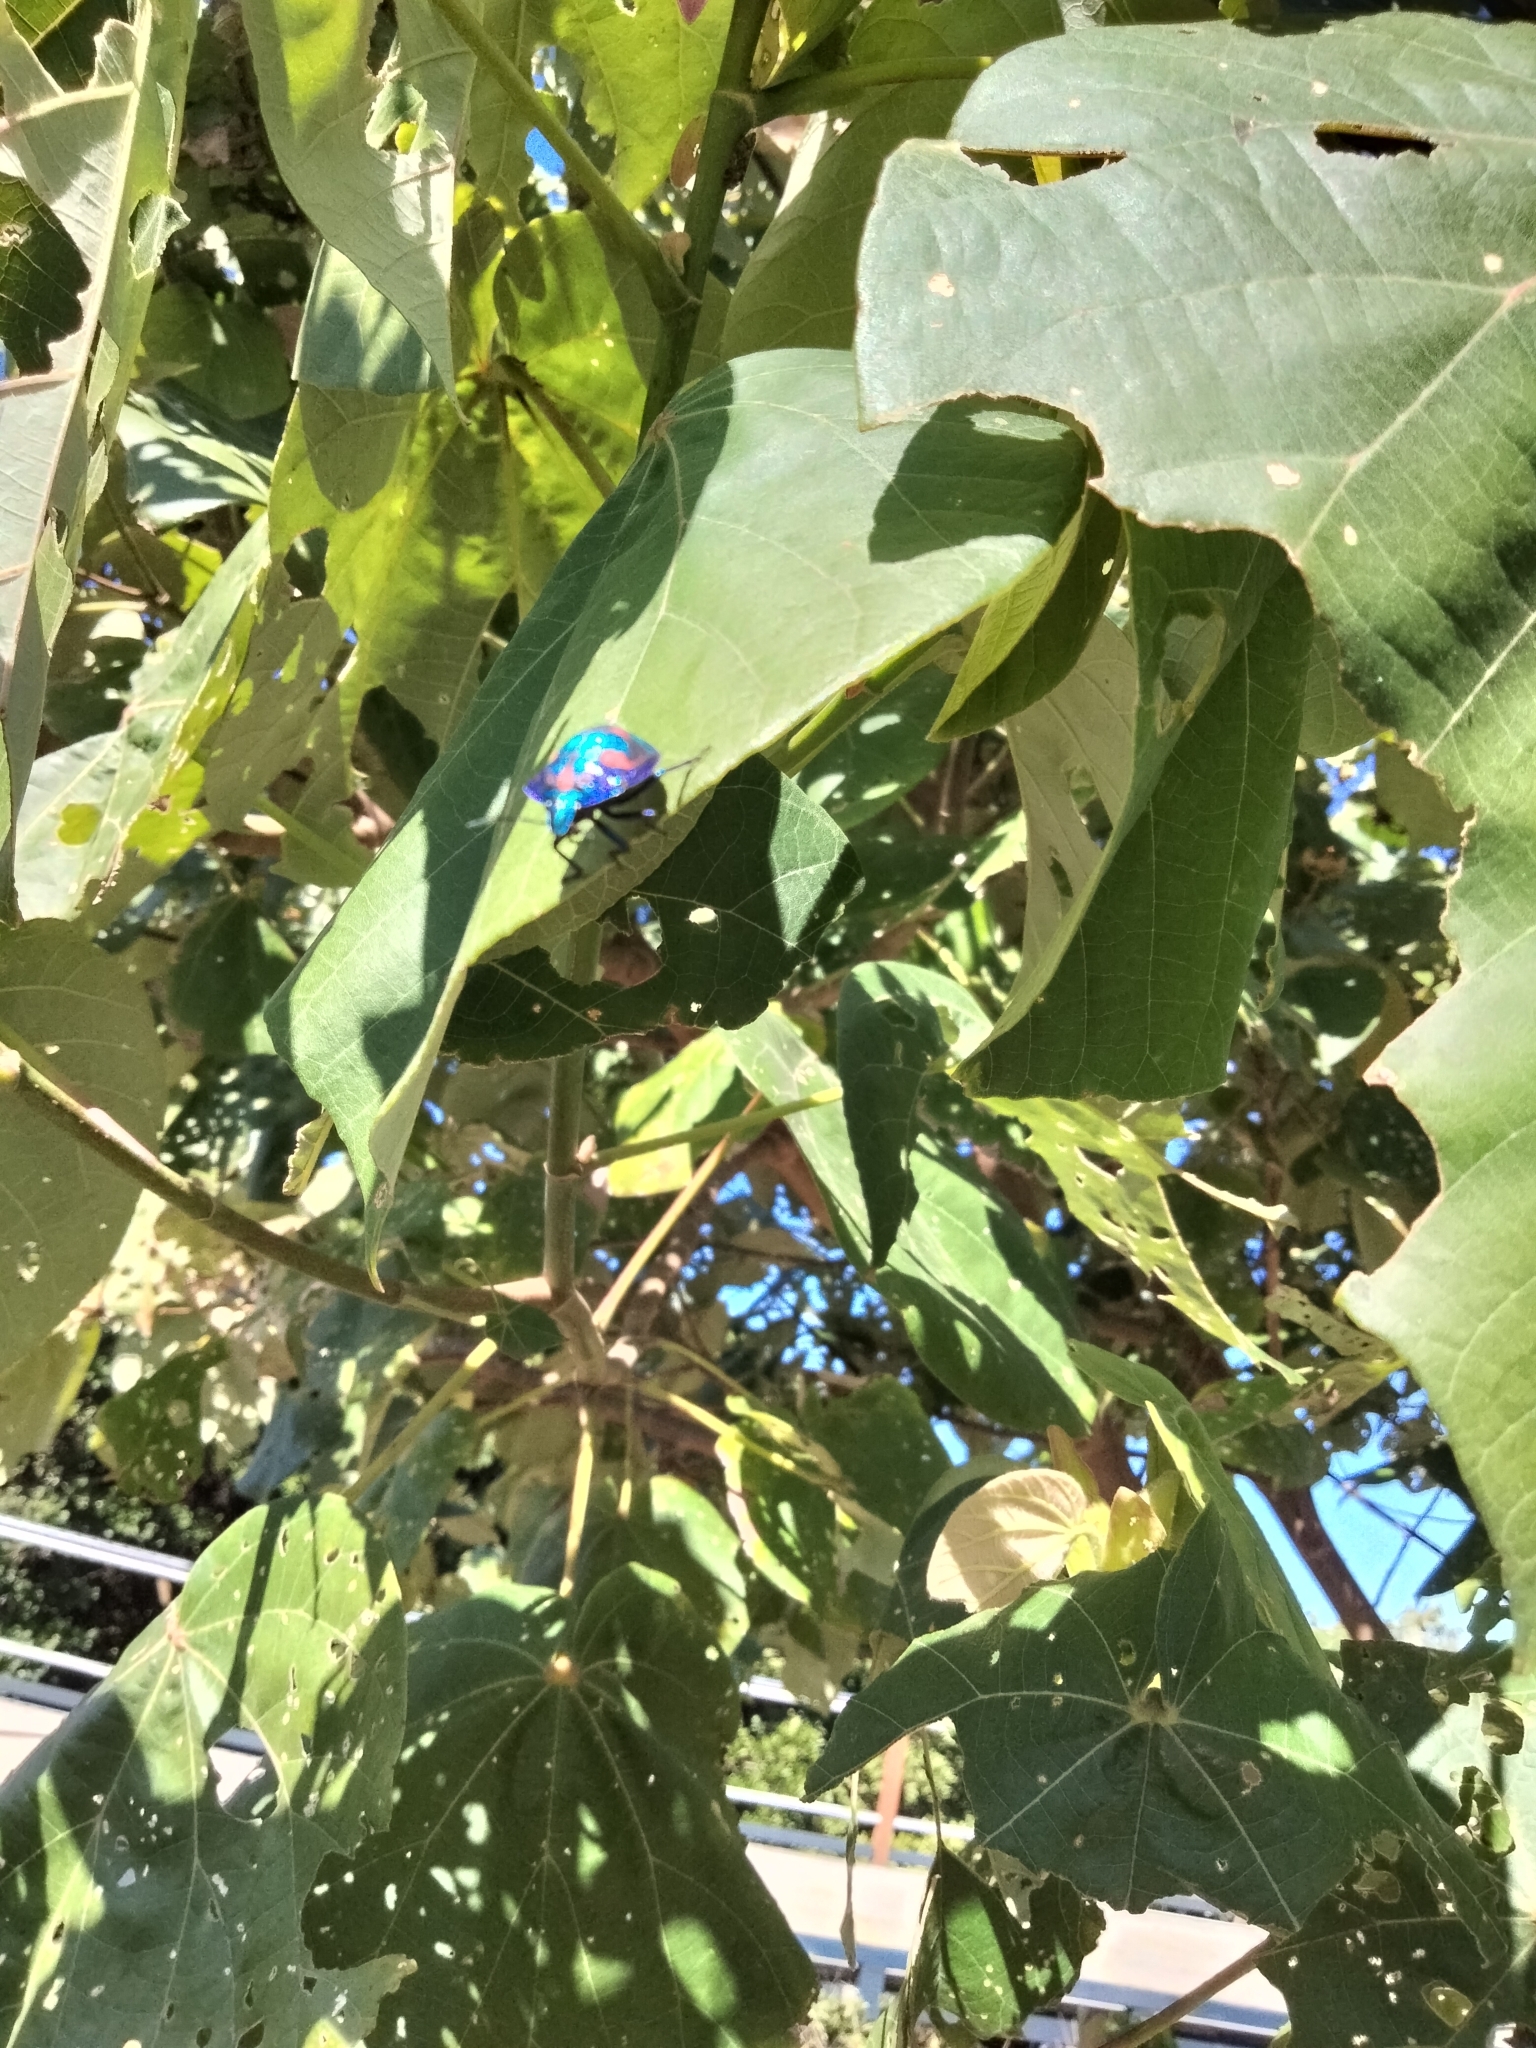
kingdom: Animalia
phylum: Arthropoda
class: Insecta
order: Hemiptera
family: Scutelleridae
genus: Tectocoris
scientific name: Tectocoris diophthalmus
